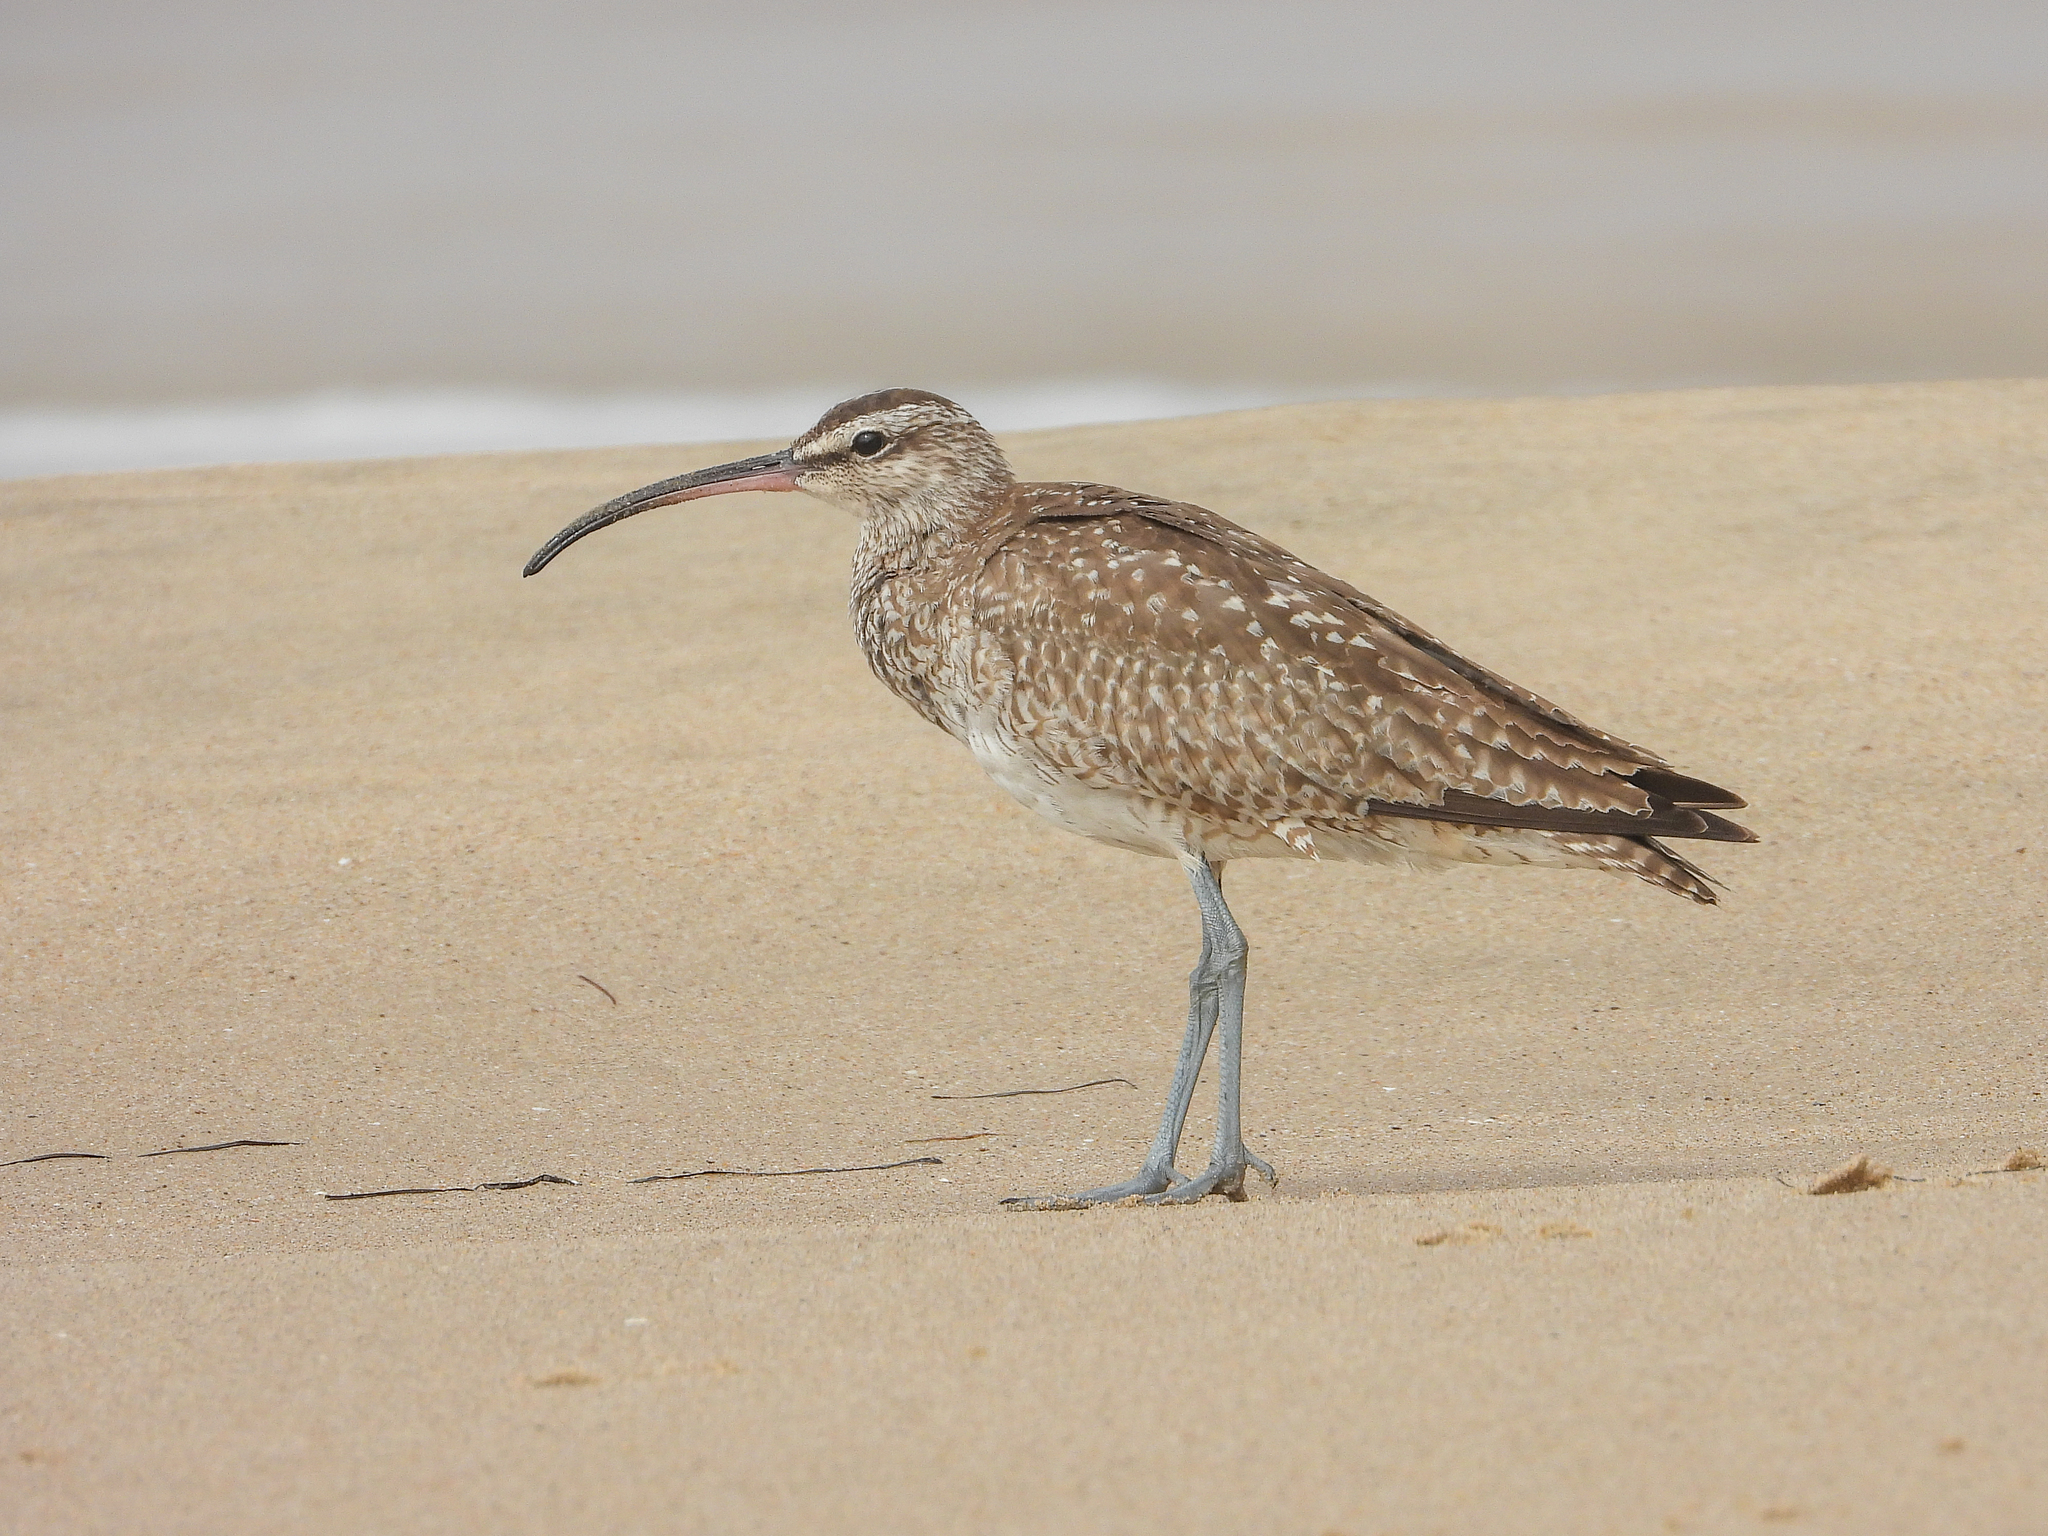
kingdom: Animalia
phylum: Chordata
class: Aves
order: Charadriiformes
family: Scolopacidae
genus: Numenius
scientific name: Numenius phaeopus
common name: Whimbrel
